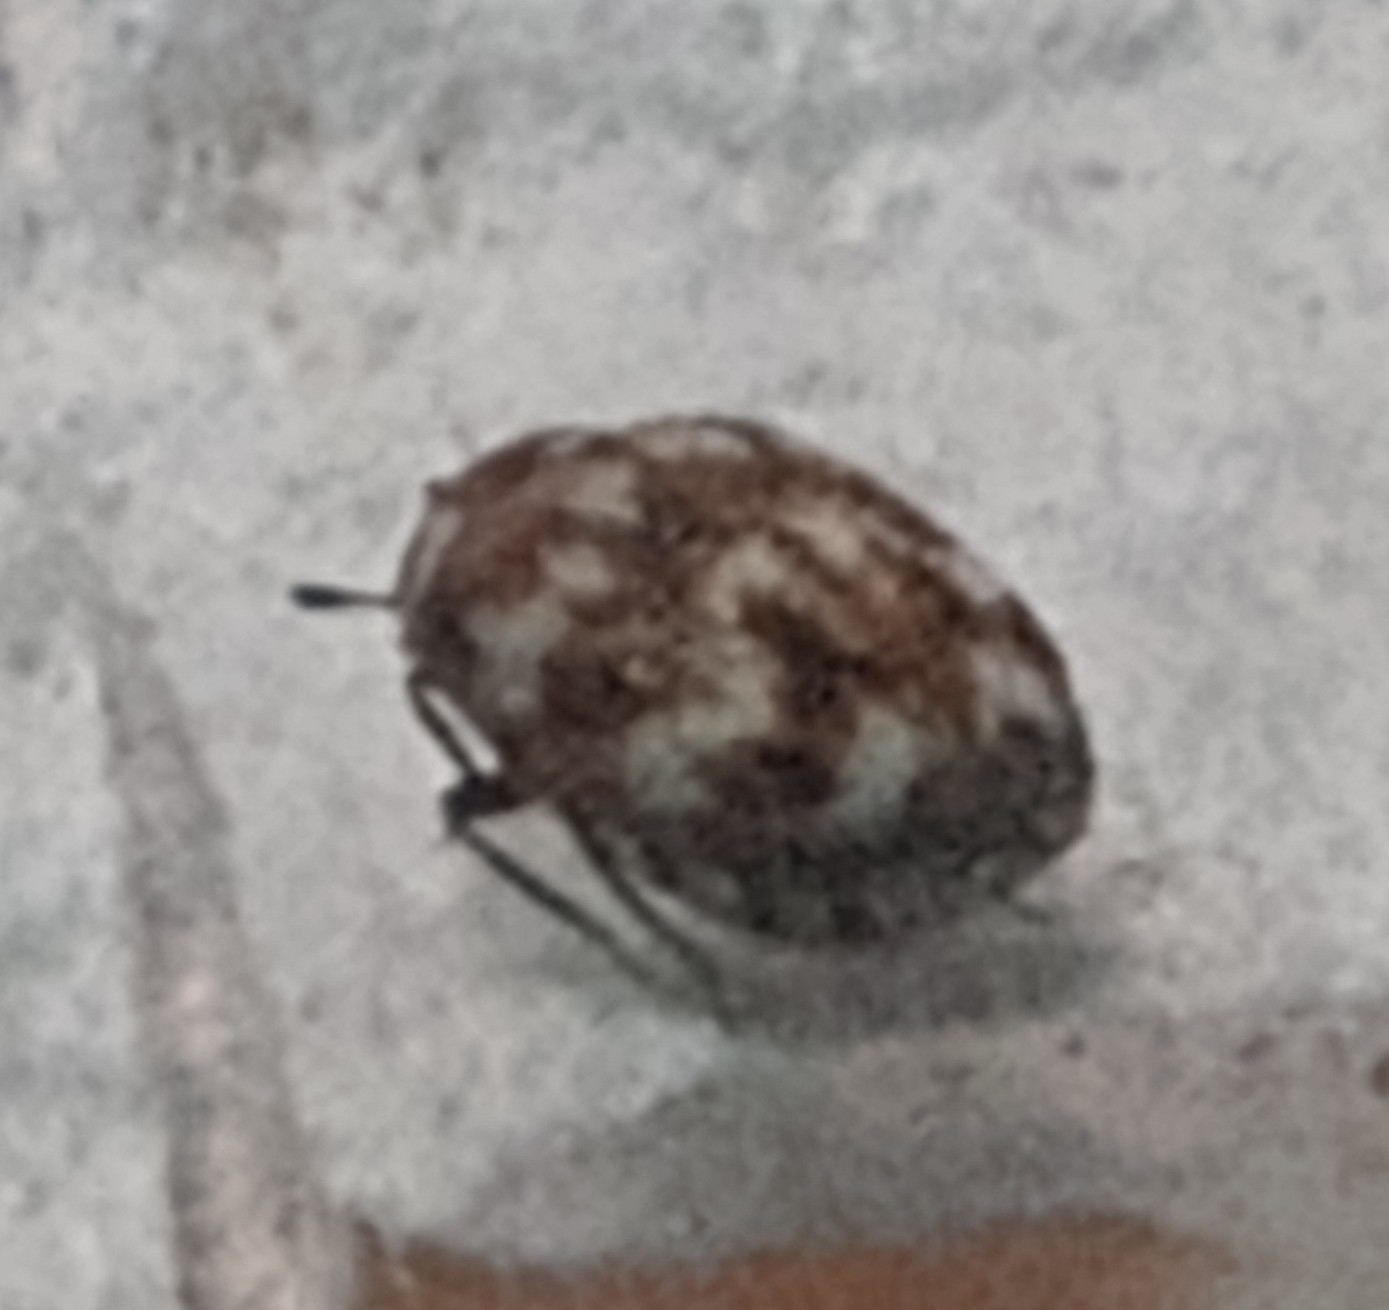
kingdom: Animalia
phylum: Arthropoda
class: Insecta
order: Coleoptera
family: Dermestidae
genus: Anthrenus
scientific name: Anthrenus verbasci
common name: Varied carpet beetle
